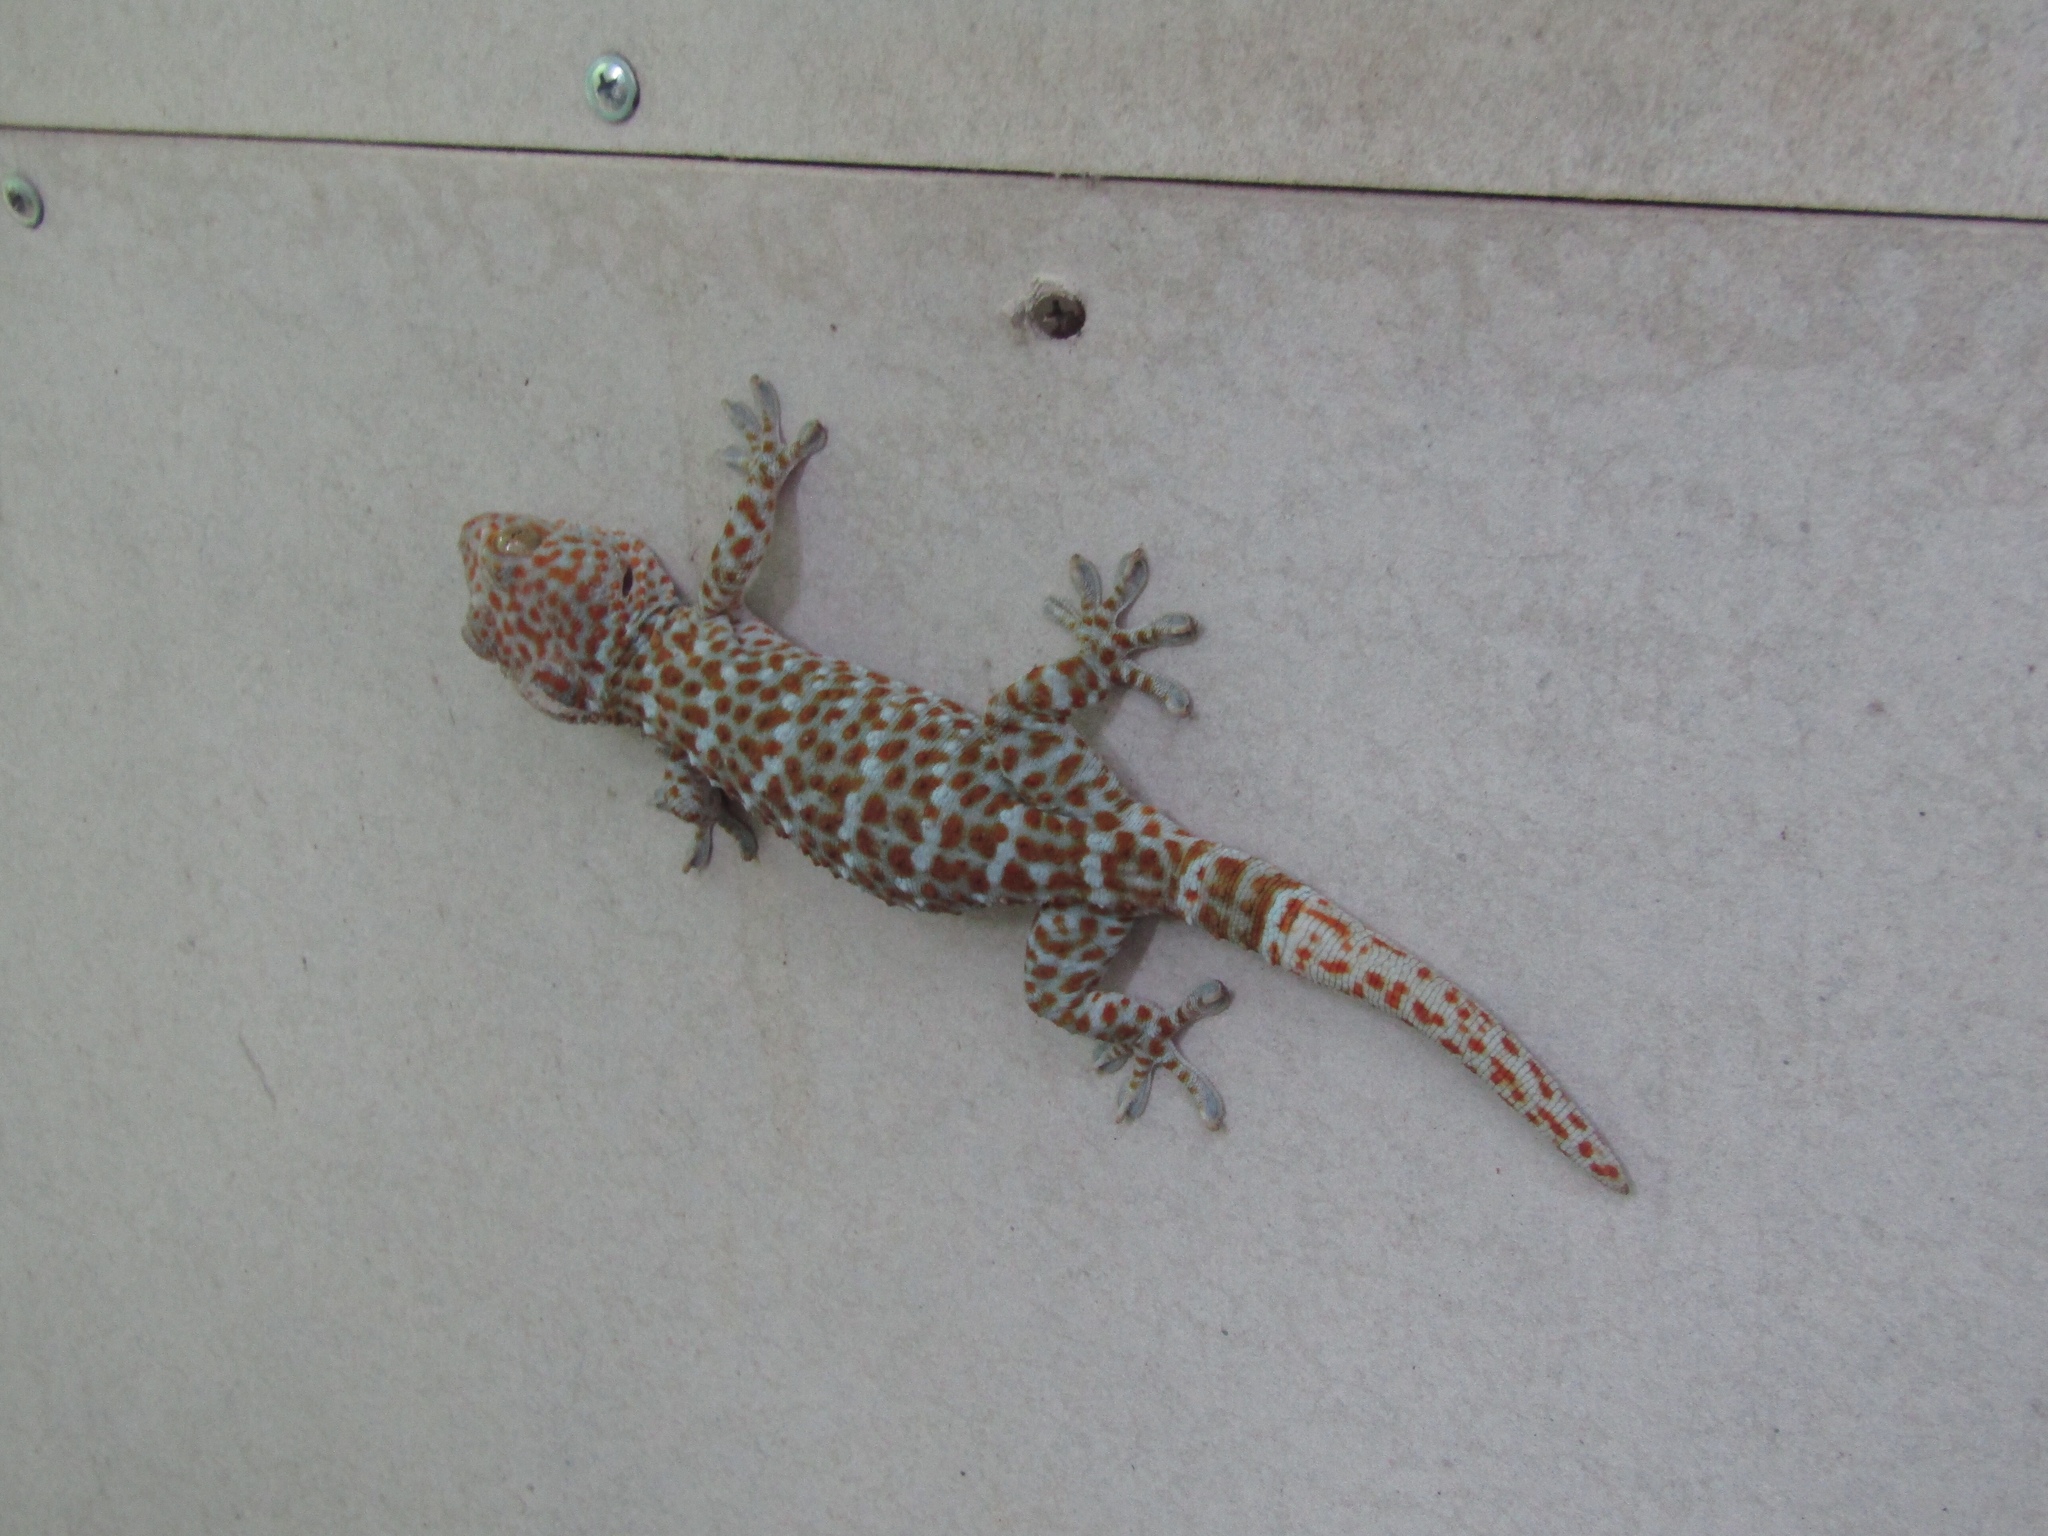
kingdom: Animalia
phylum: Chordata
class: Squamata
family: Gekkonidae
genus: Gekko
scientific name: Gekko gecko
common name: Tokay gecko
